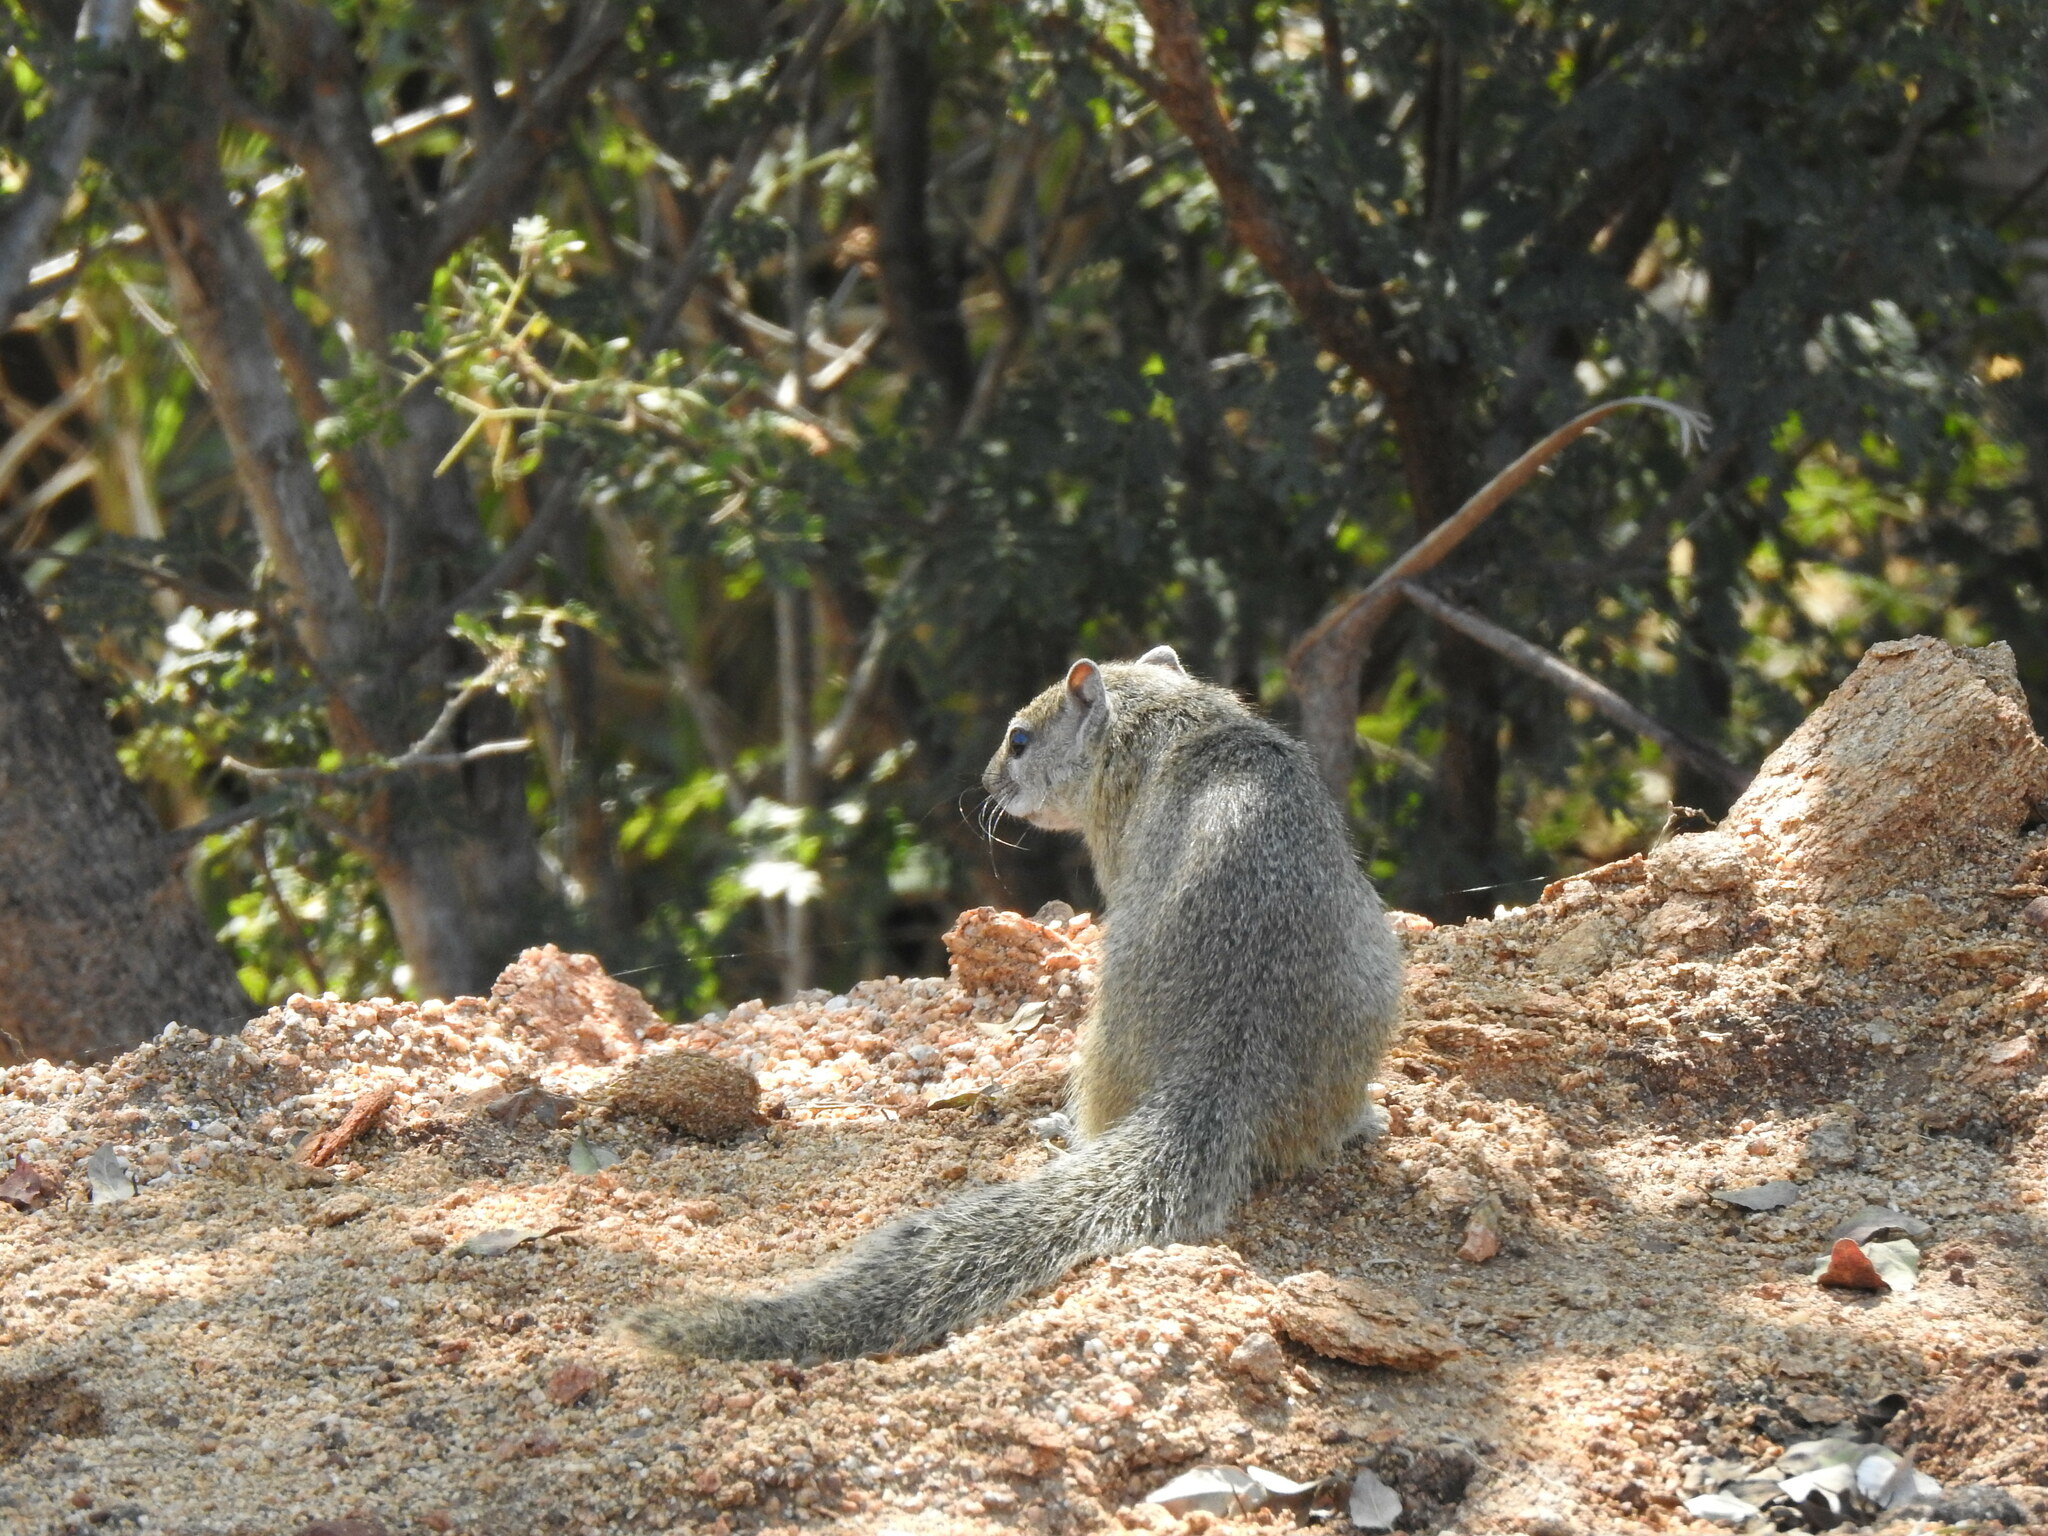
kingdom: Animalia
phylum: Chordata
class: Mammalia
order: Rodentia
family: Sciuridae
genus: Paraxerus
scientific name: Paraxerus cepapi
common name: Smith's bush squirrel
